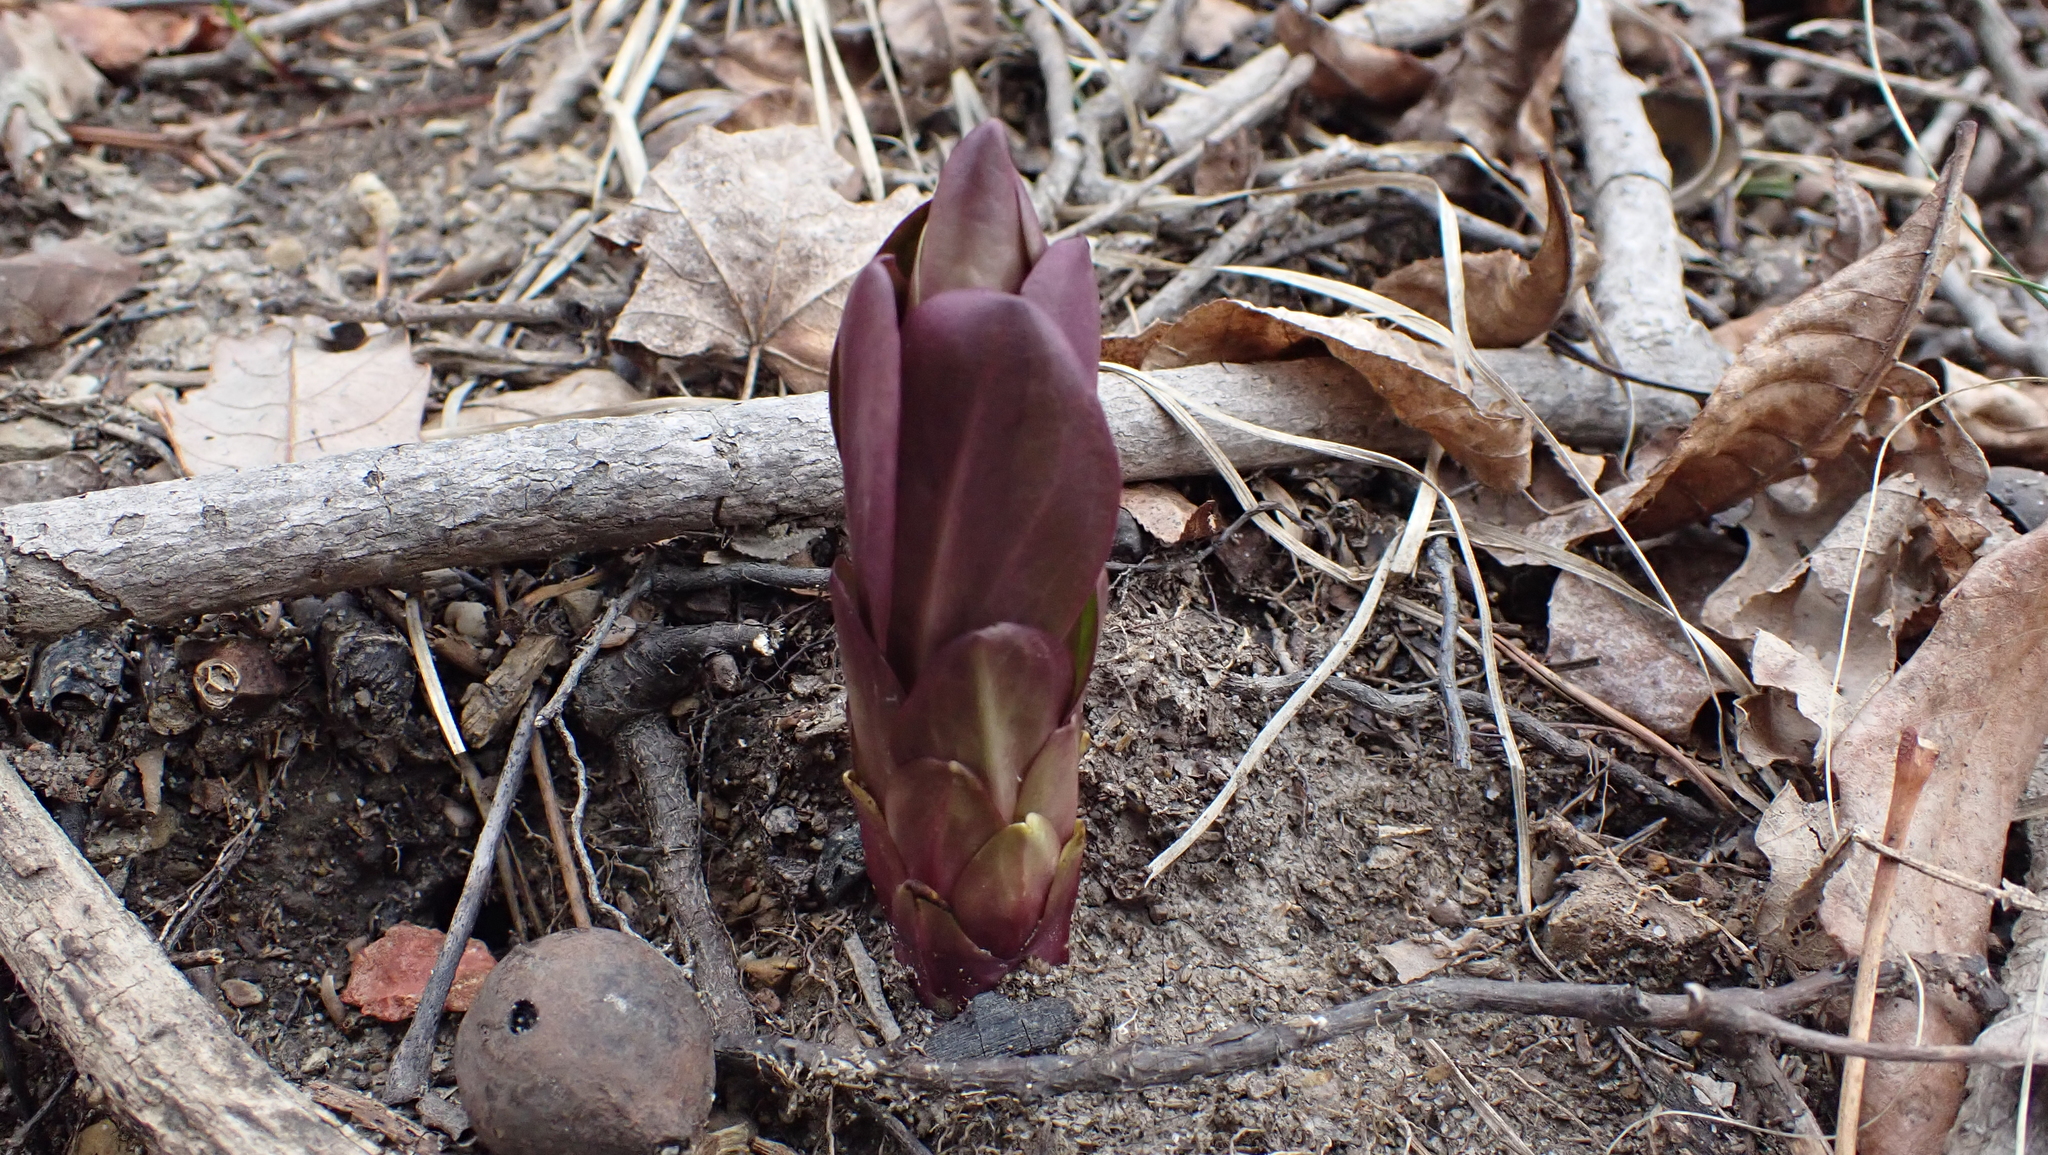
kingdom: Plantae
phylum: Tracheophyta
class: Magnoliopsida
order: Gentianales
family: Gentianaceae
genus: Frasera
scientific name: Frasera caroliniensis
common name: American columbo
